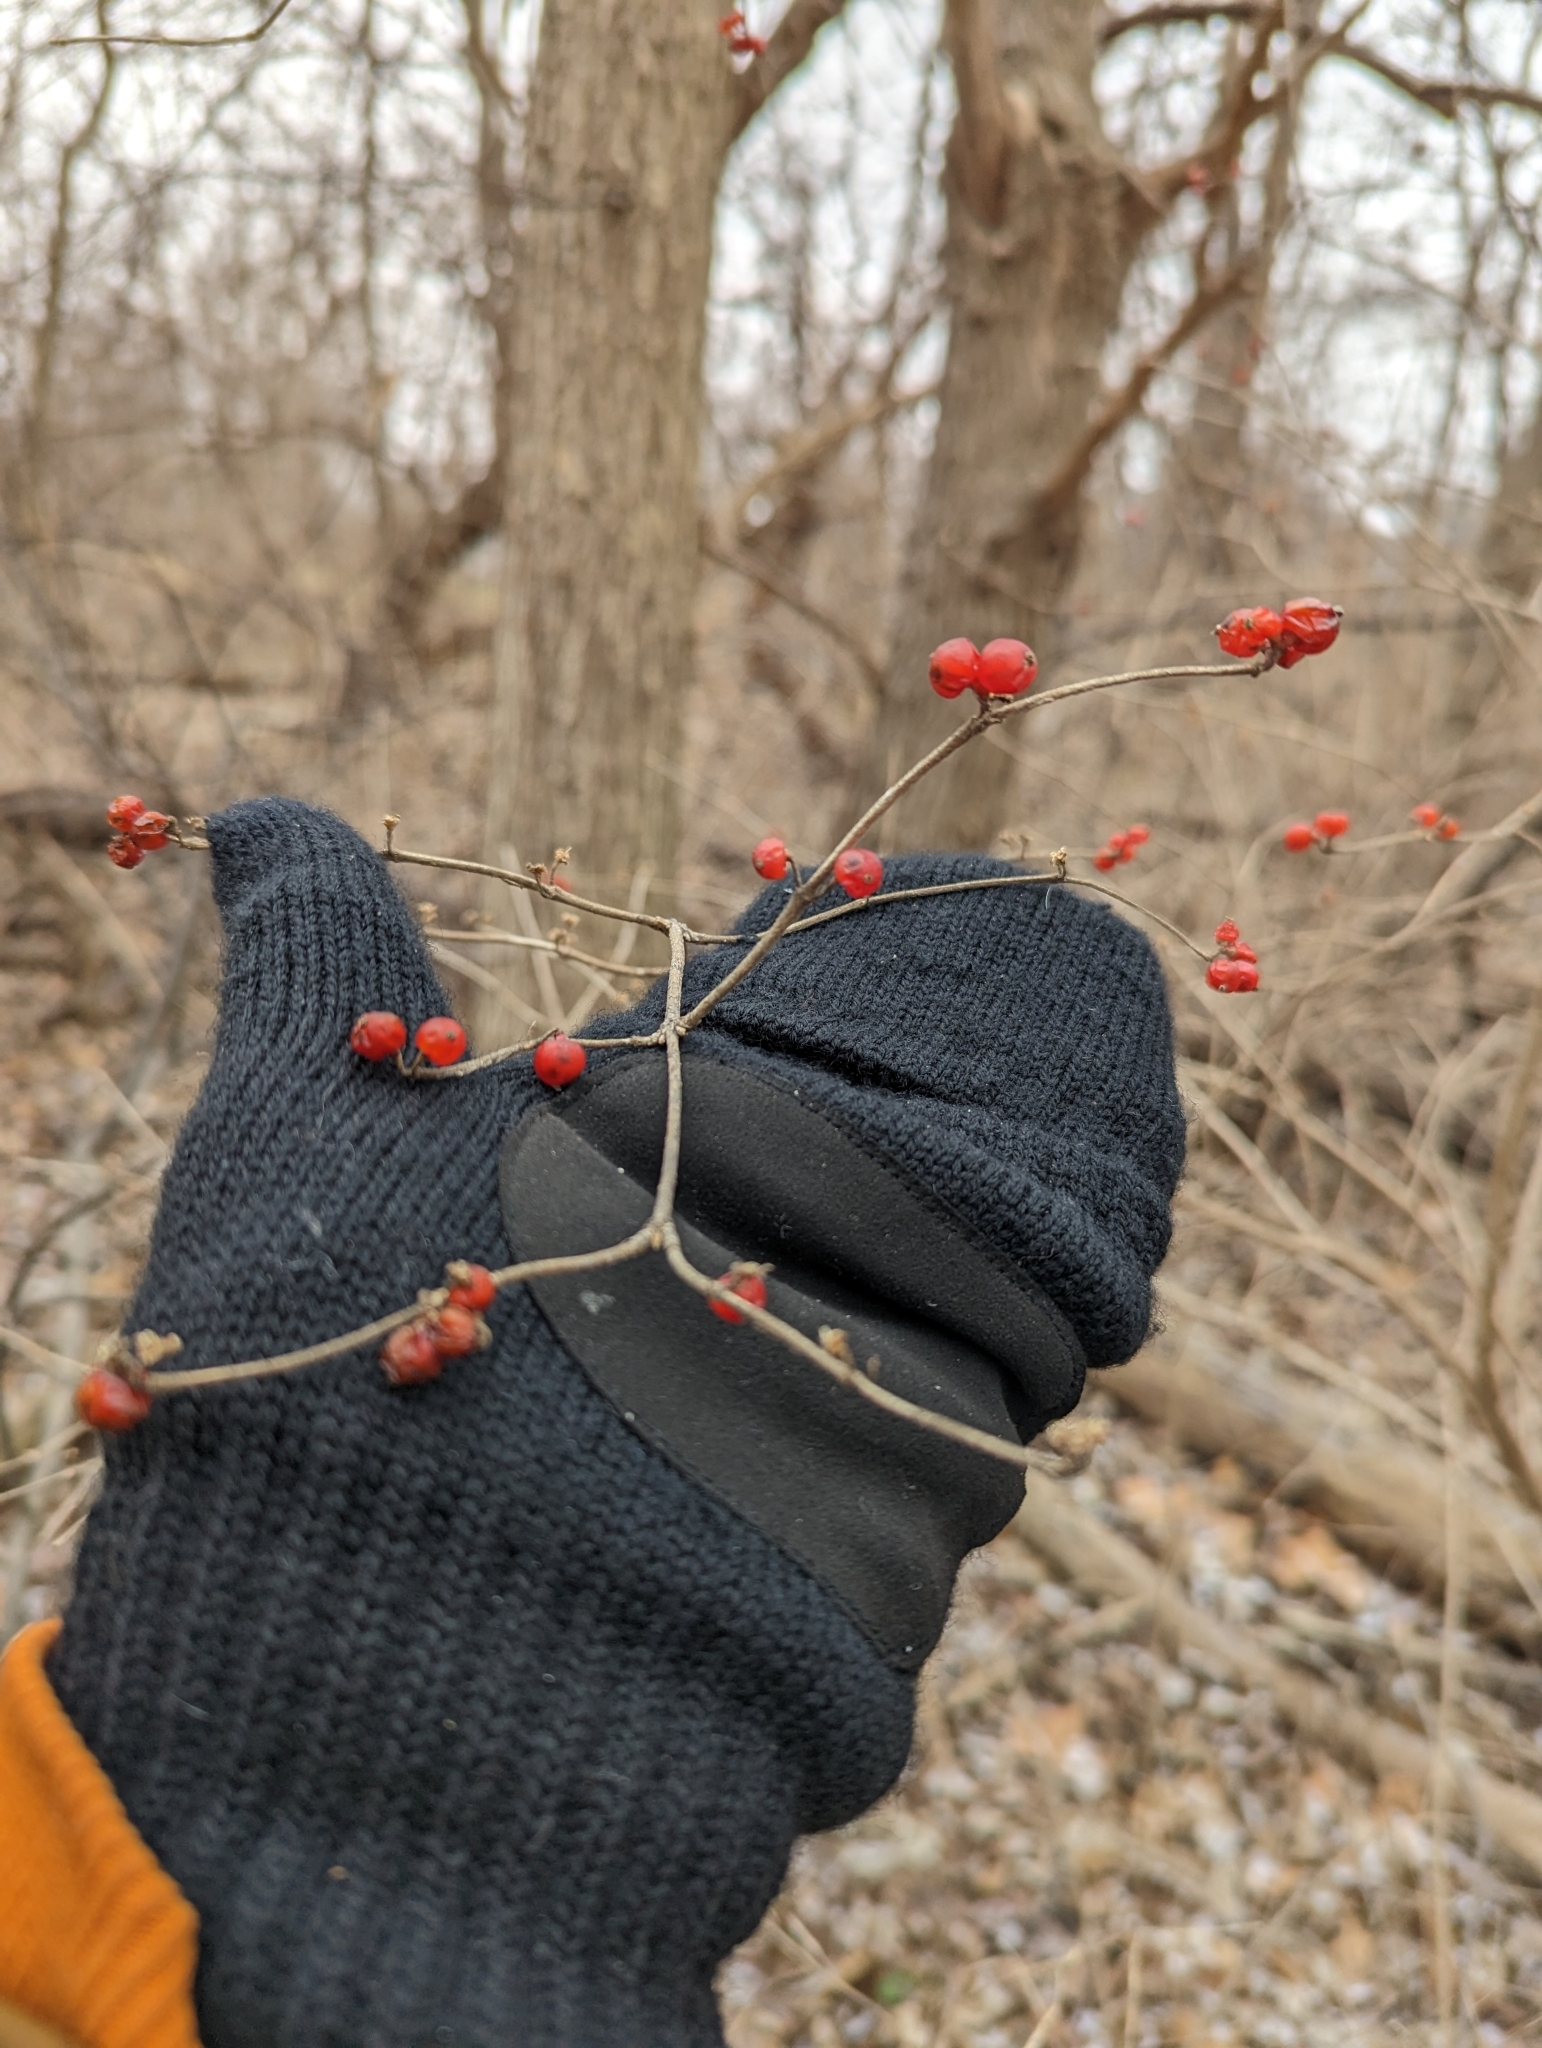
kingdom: Plantae
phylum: Tracheophyta
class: Magnoliopsida
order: Dipsacales
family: Caprifoliaceae
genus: Lonicera
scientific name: Lonicera maackii
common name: Amur honeysuckle
